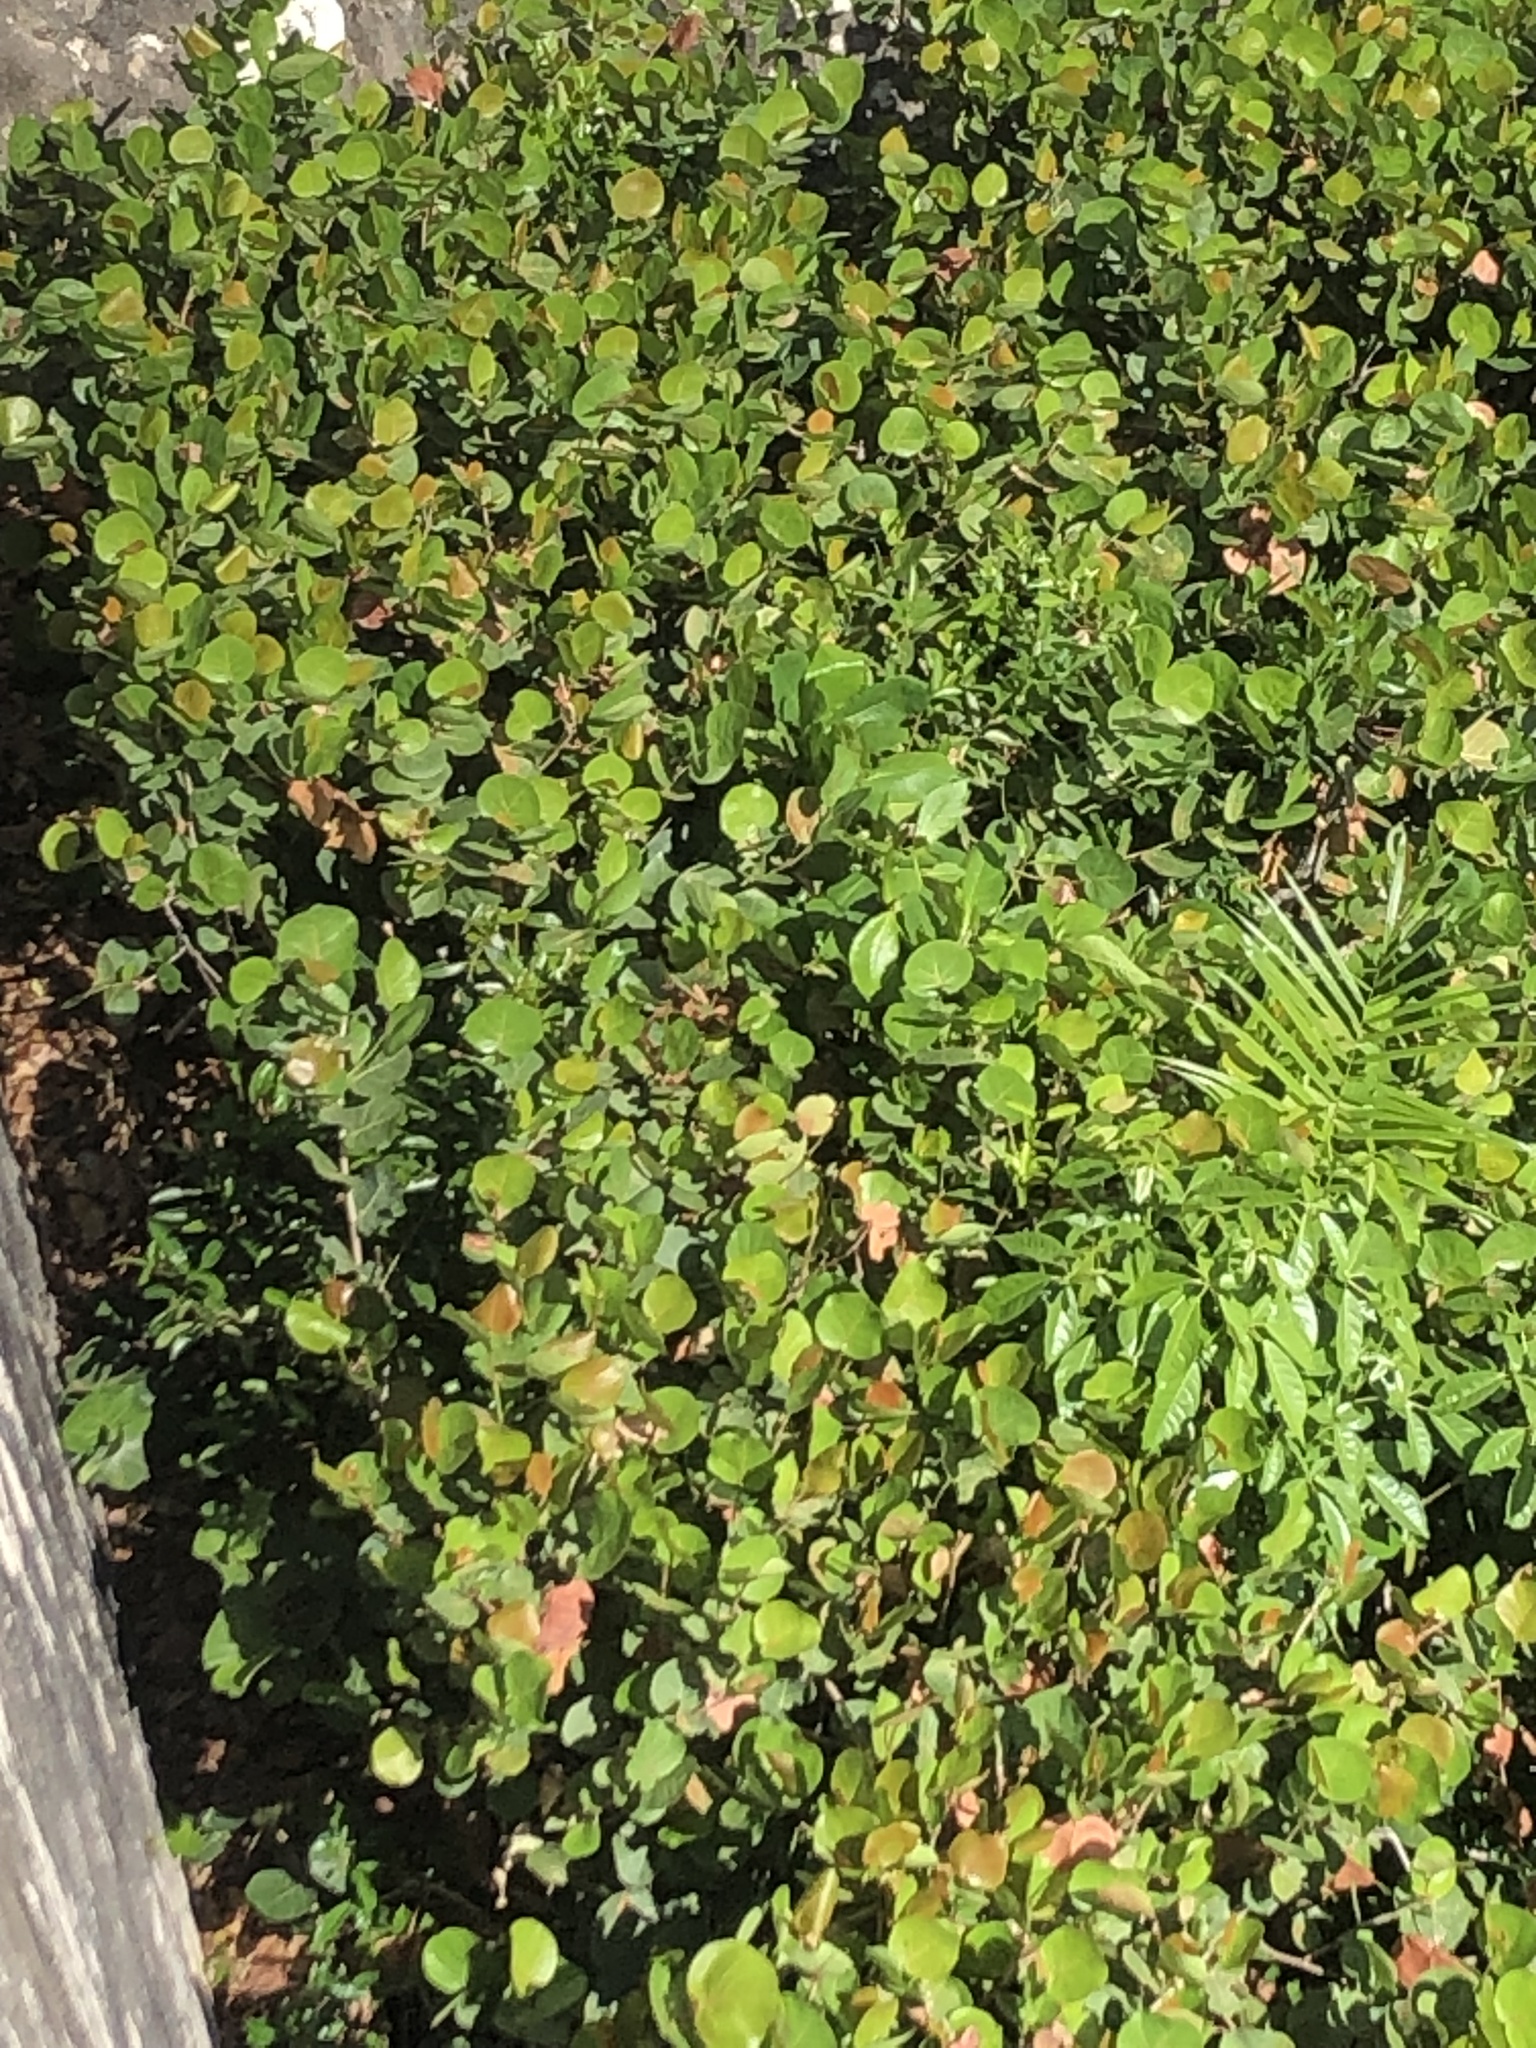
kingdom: Plantae
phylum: Tracheophyta
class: Magnoliopsida
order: Caryophyllales
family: Polygonaceae
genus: Coccoloba
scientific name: Coccoloba uvifera
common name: Seagrape
